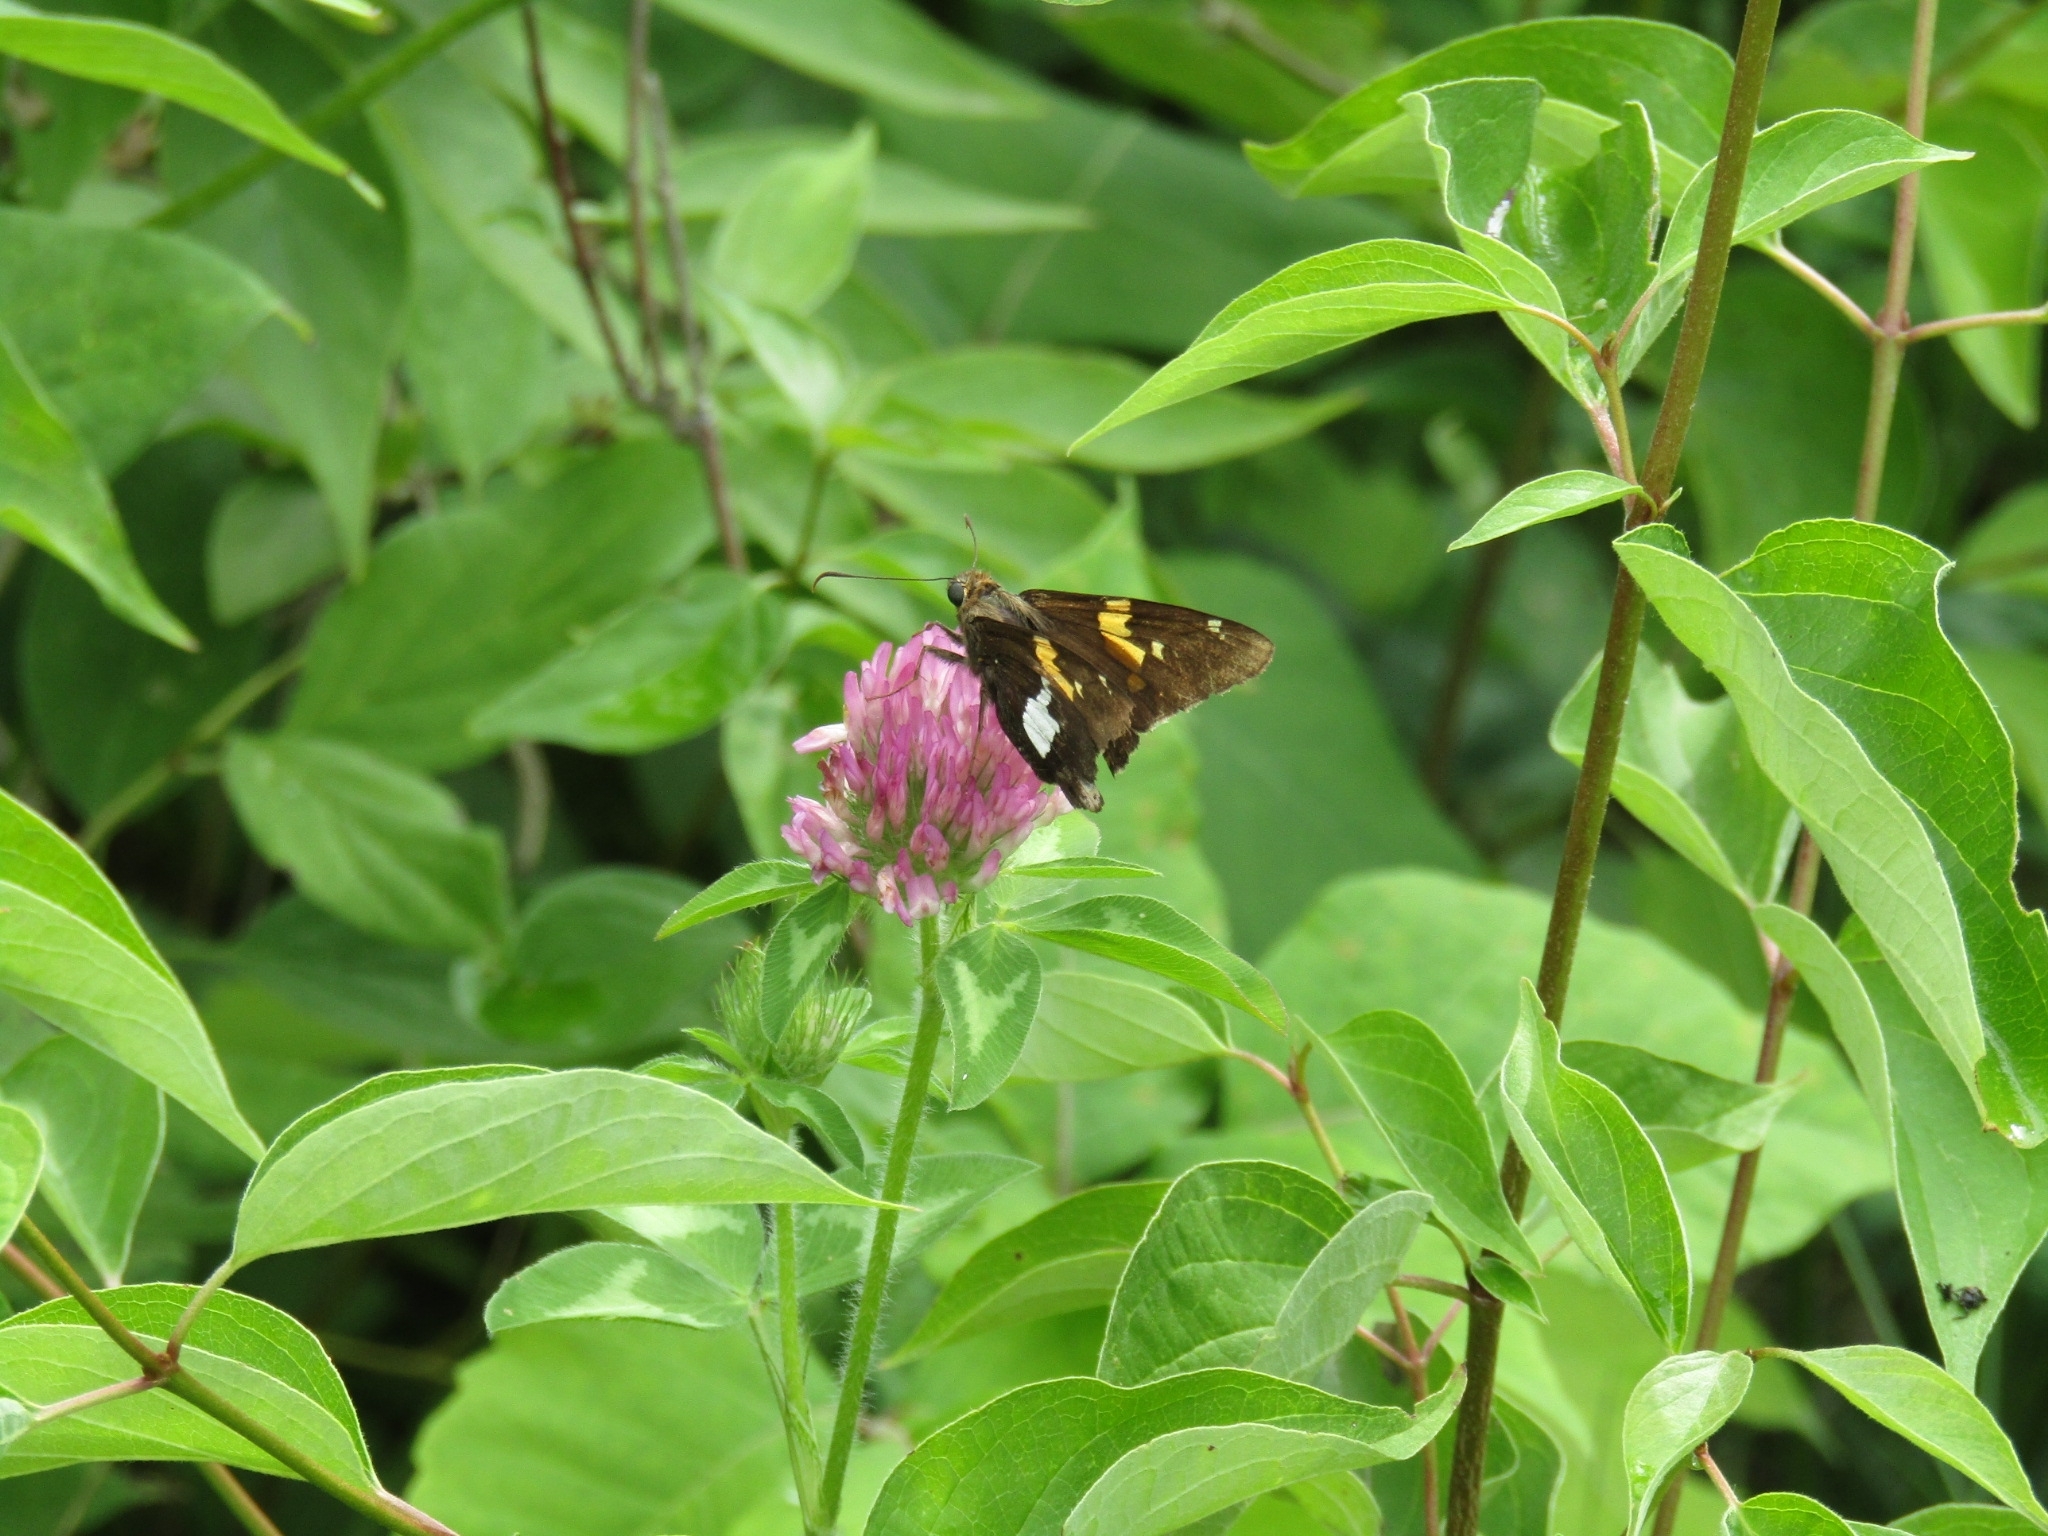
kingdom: Animalia
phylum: Arthropoda
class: Insecta
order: Lepidoptera
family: Hesperiidae
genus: Epargyreus
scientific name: Epargyreus clarus
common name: Silver-spotted skipper
